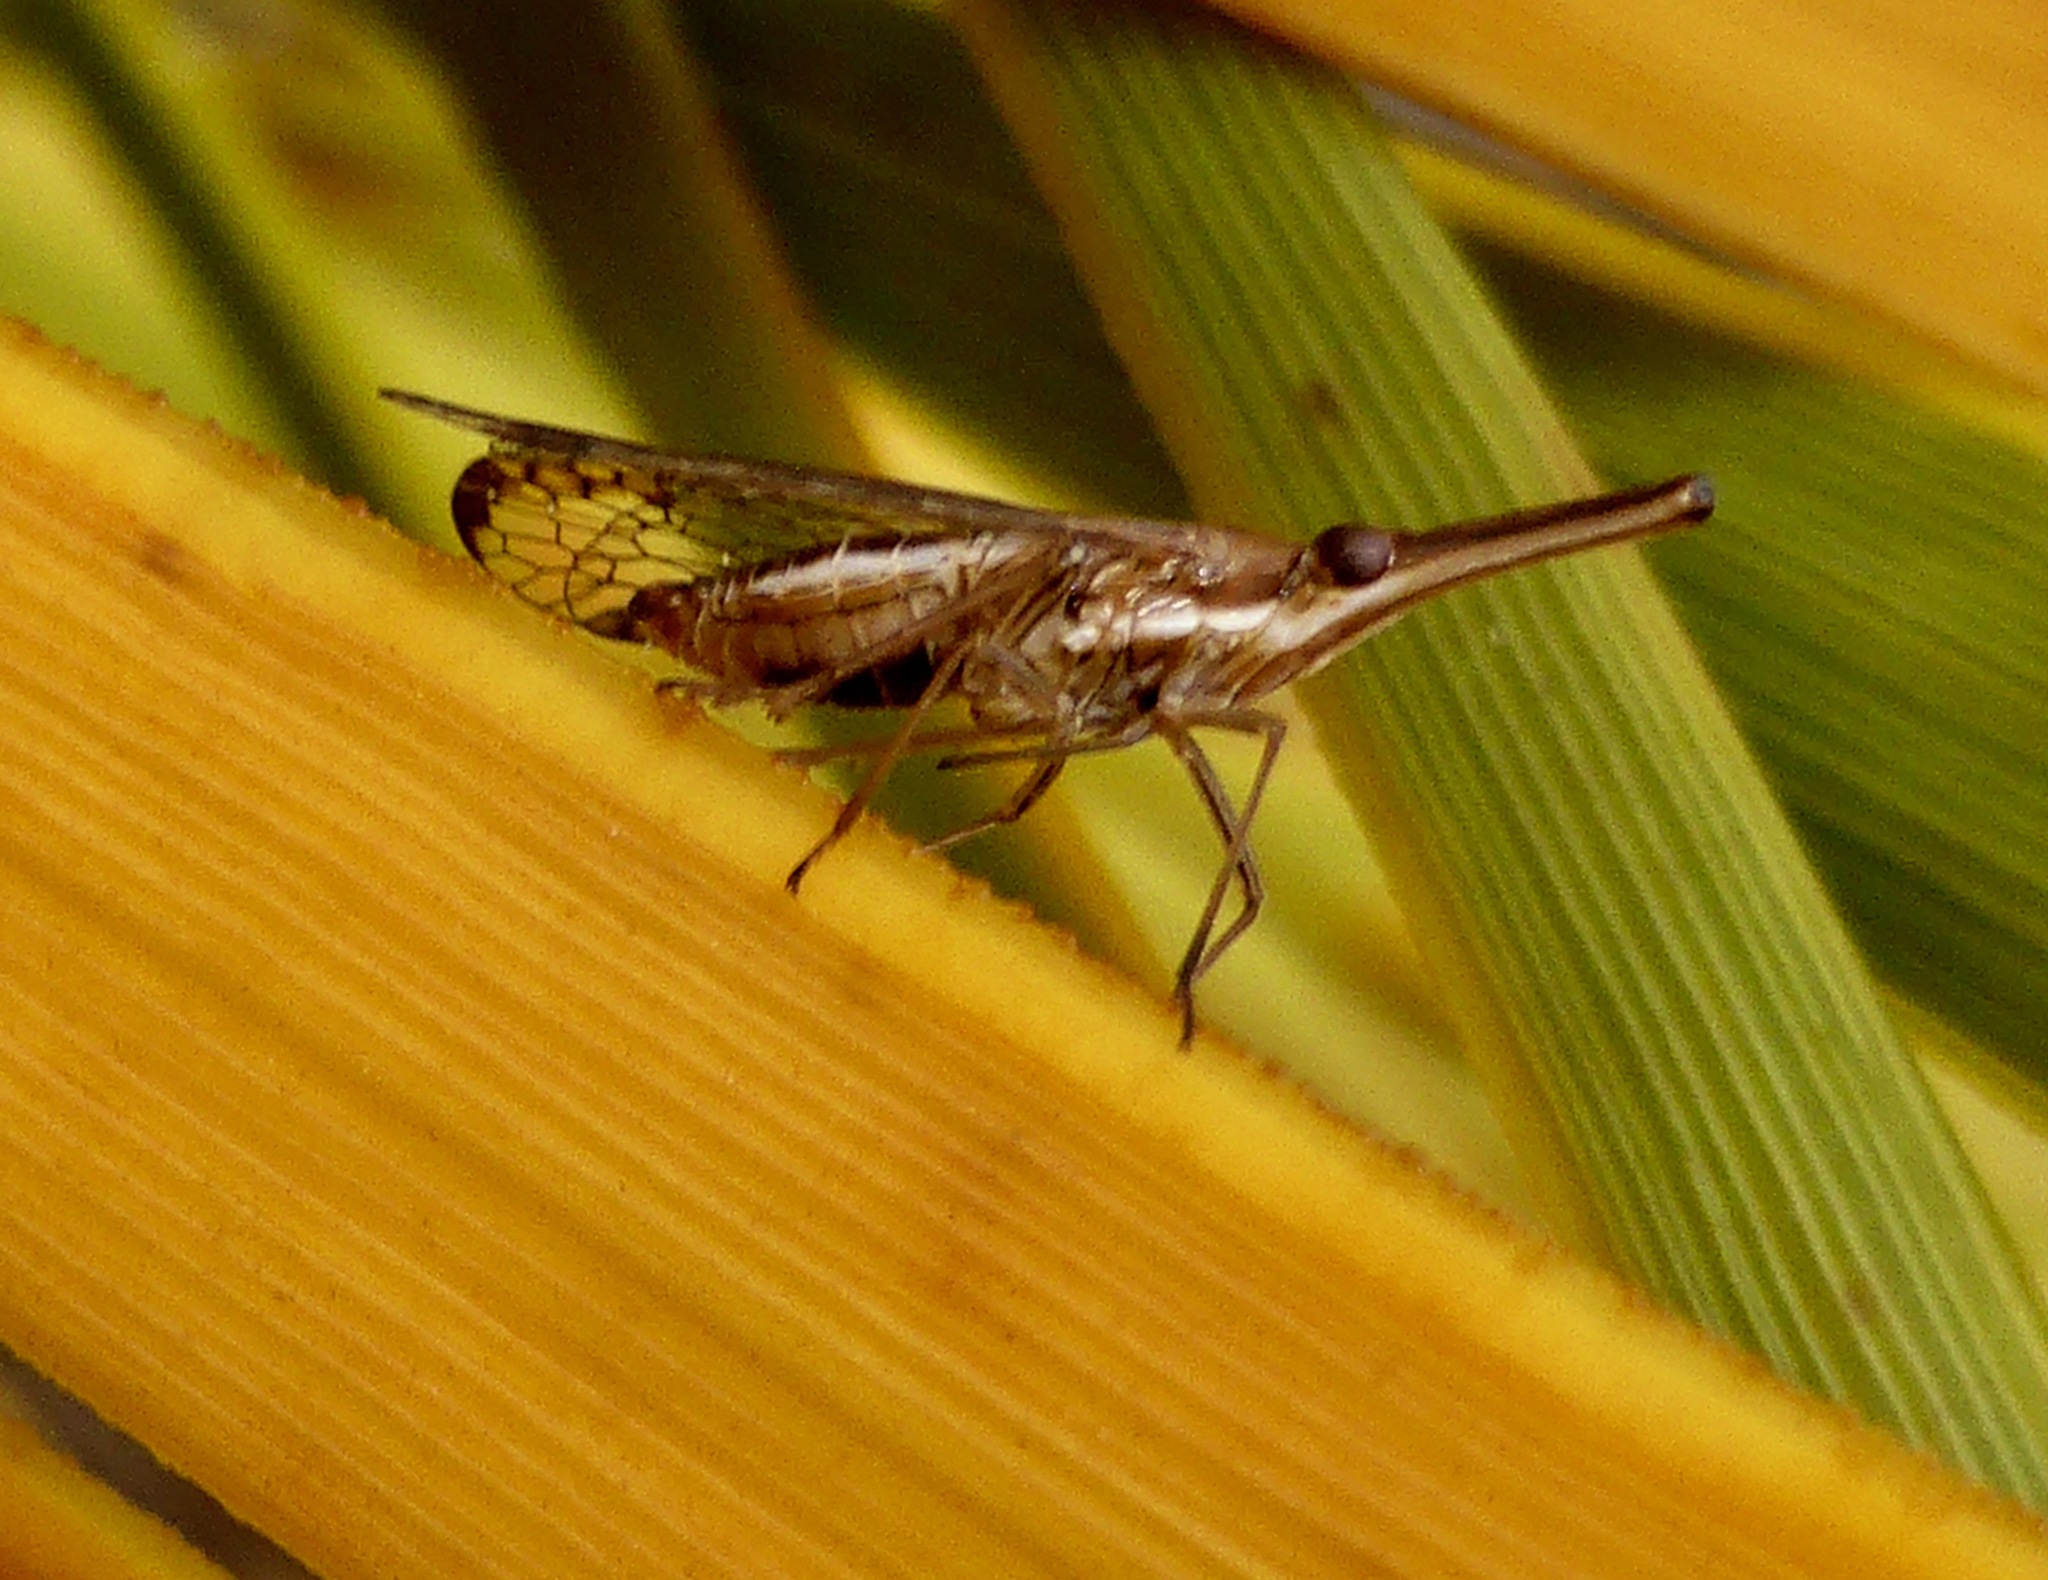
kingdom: Animalia
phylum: Arthropoda
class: Insecta
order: Hemiptera
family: Dictyopharidae
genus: Thanatodictya
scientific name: Thanatodictya tillyardi
